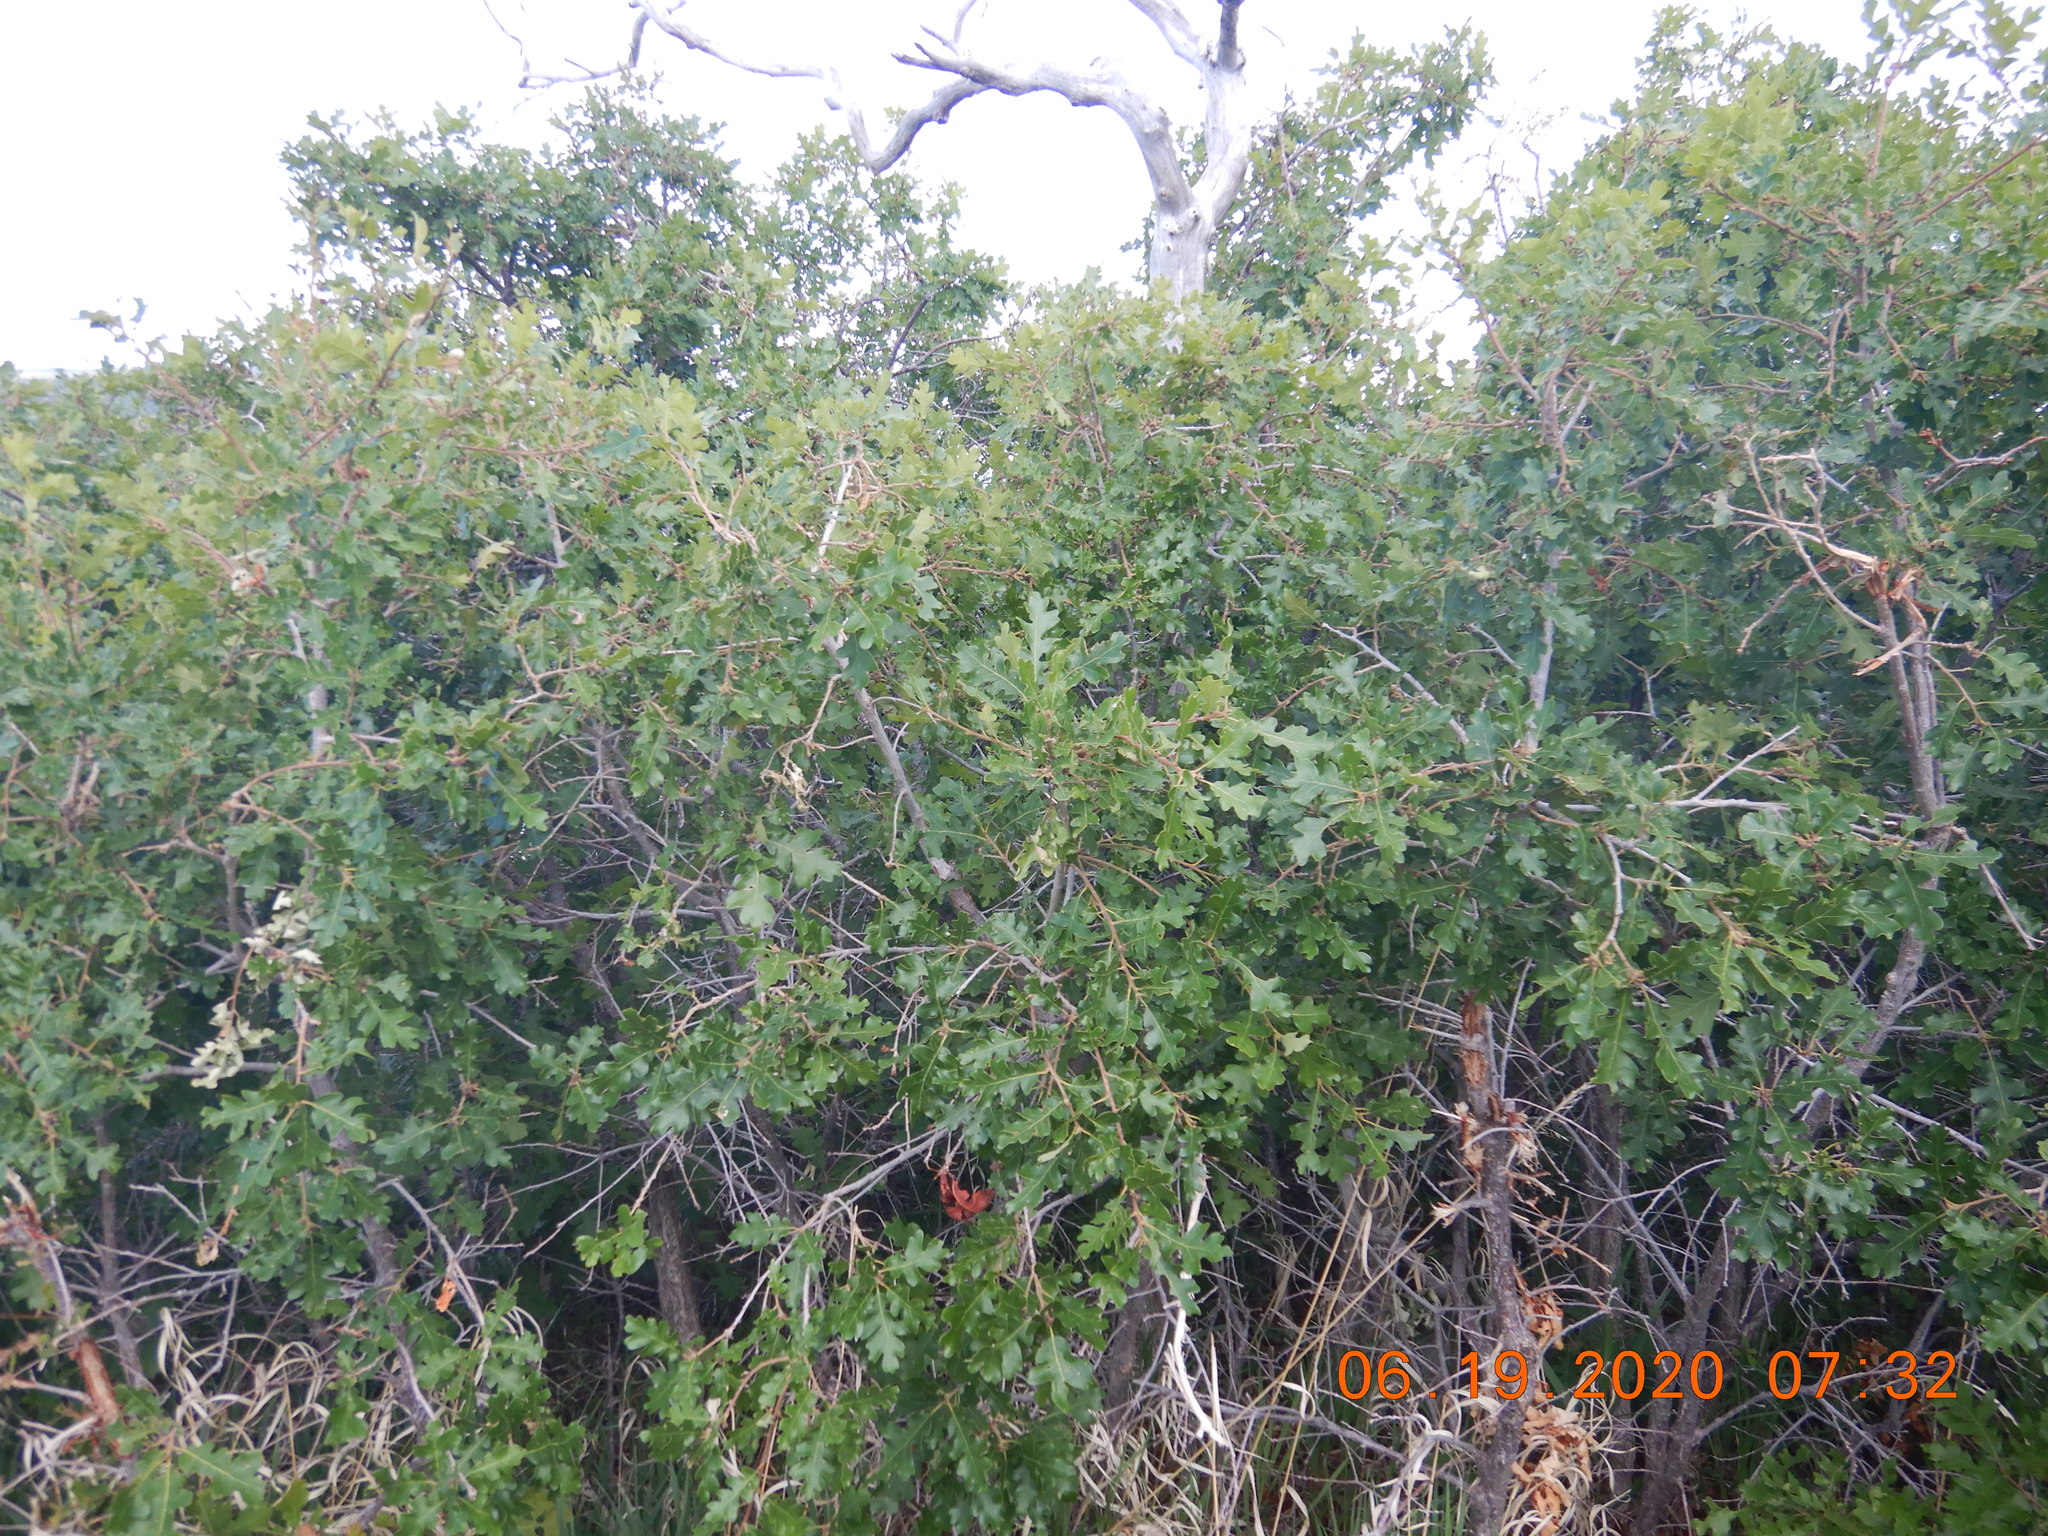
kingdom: Plantae
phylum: Tracheophyta
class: Magnoliopsida
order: Fagales
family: Fagaceae
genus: Quercus
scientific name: Quercus gambelii
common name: Gambel oak
